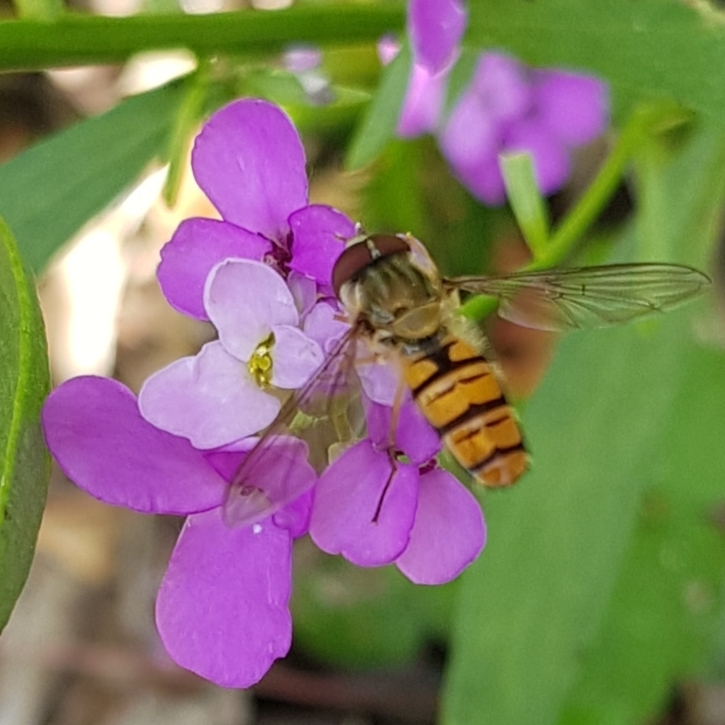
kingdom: Animalia
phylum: Arthropoda
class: Insecta
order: Diptera
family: Syrphidae
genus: Episyrphus
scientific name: Episyrphus balteatus
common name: Marmalade hoverfly
